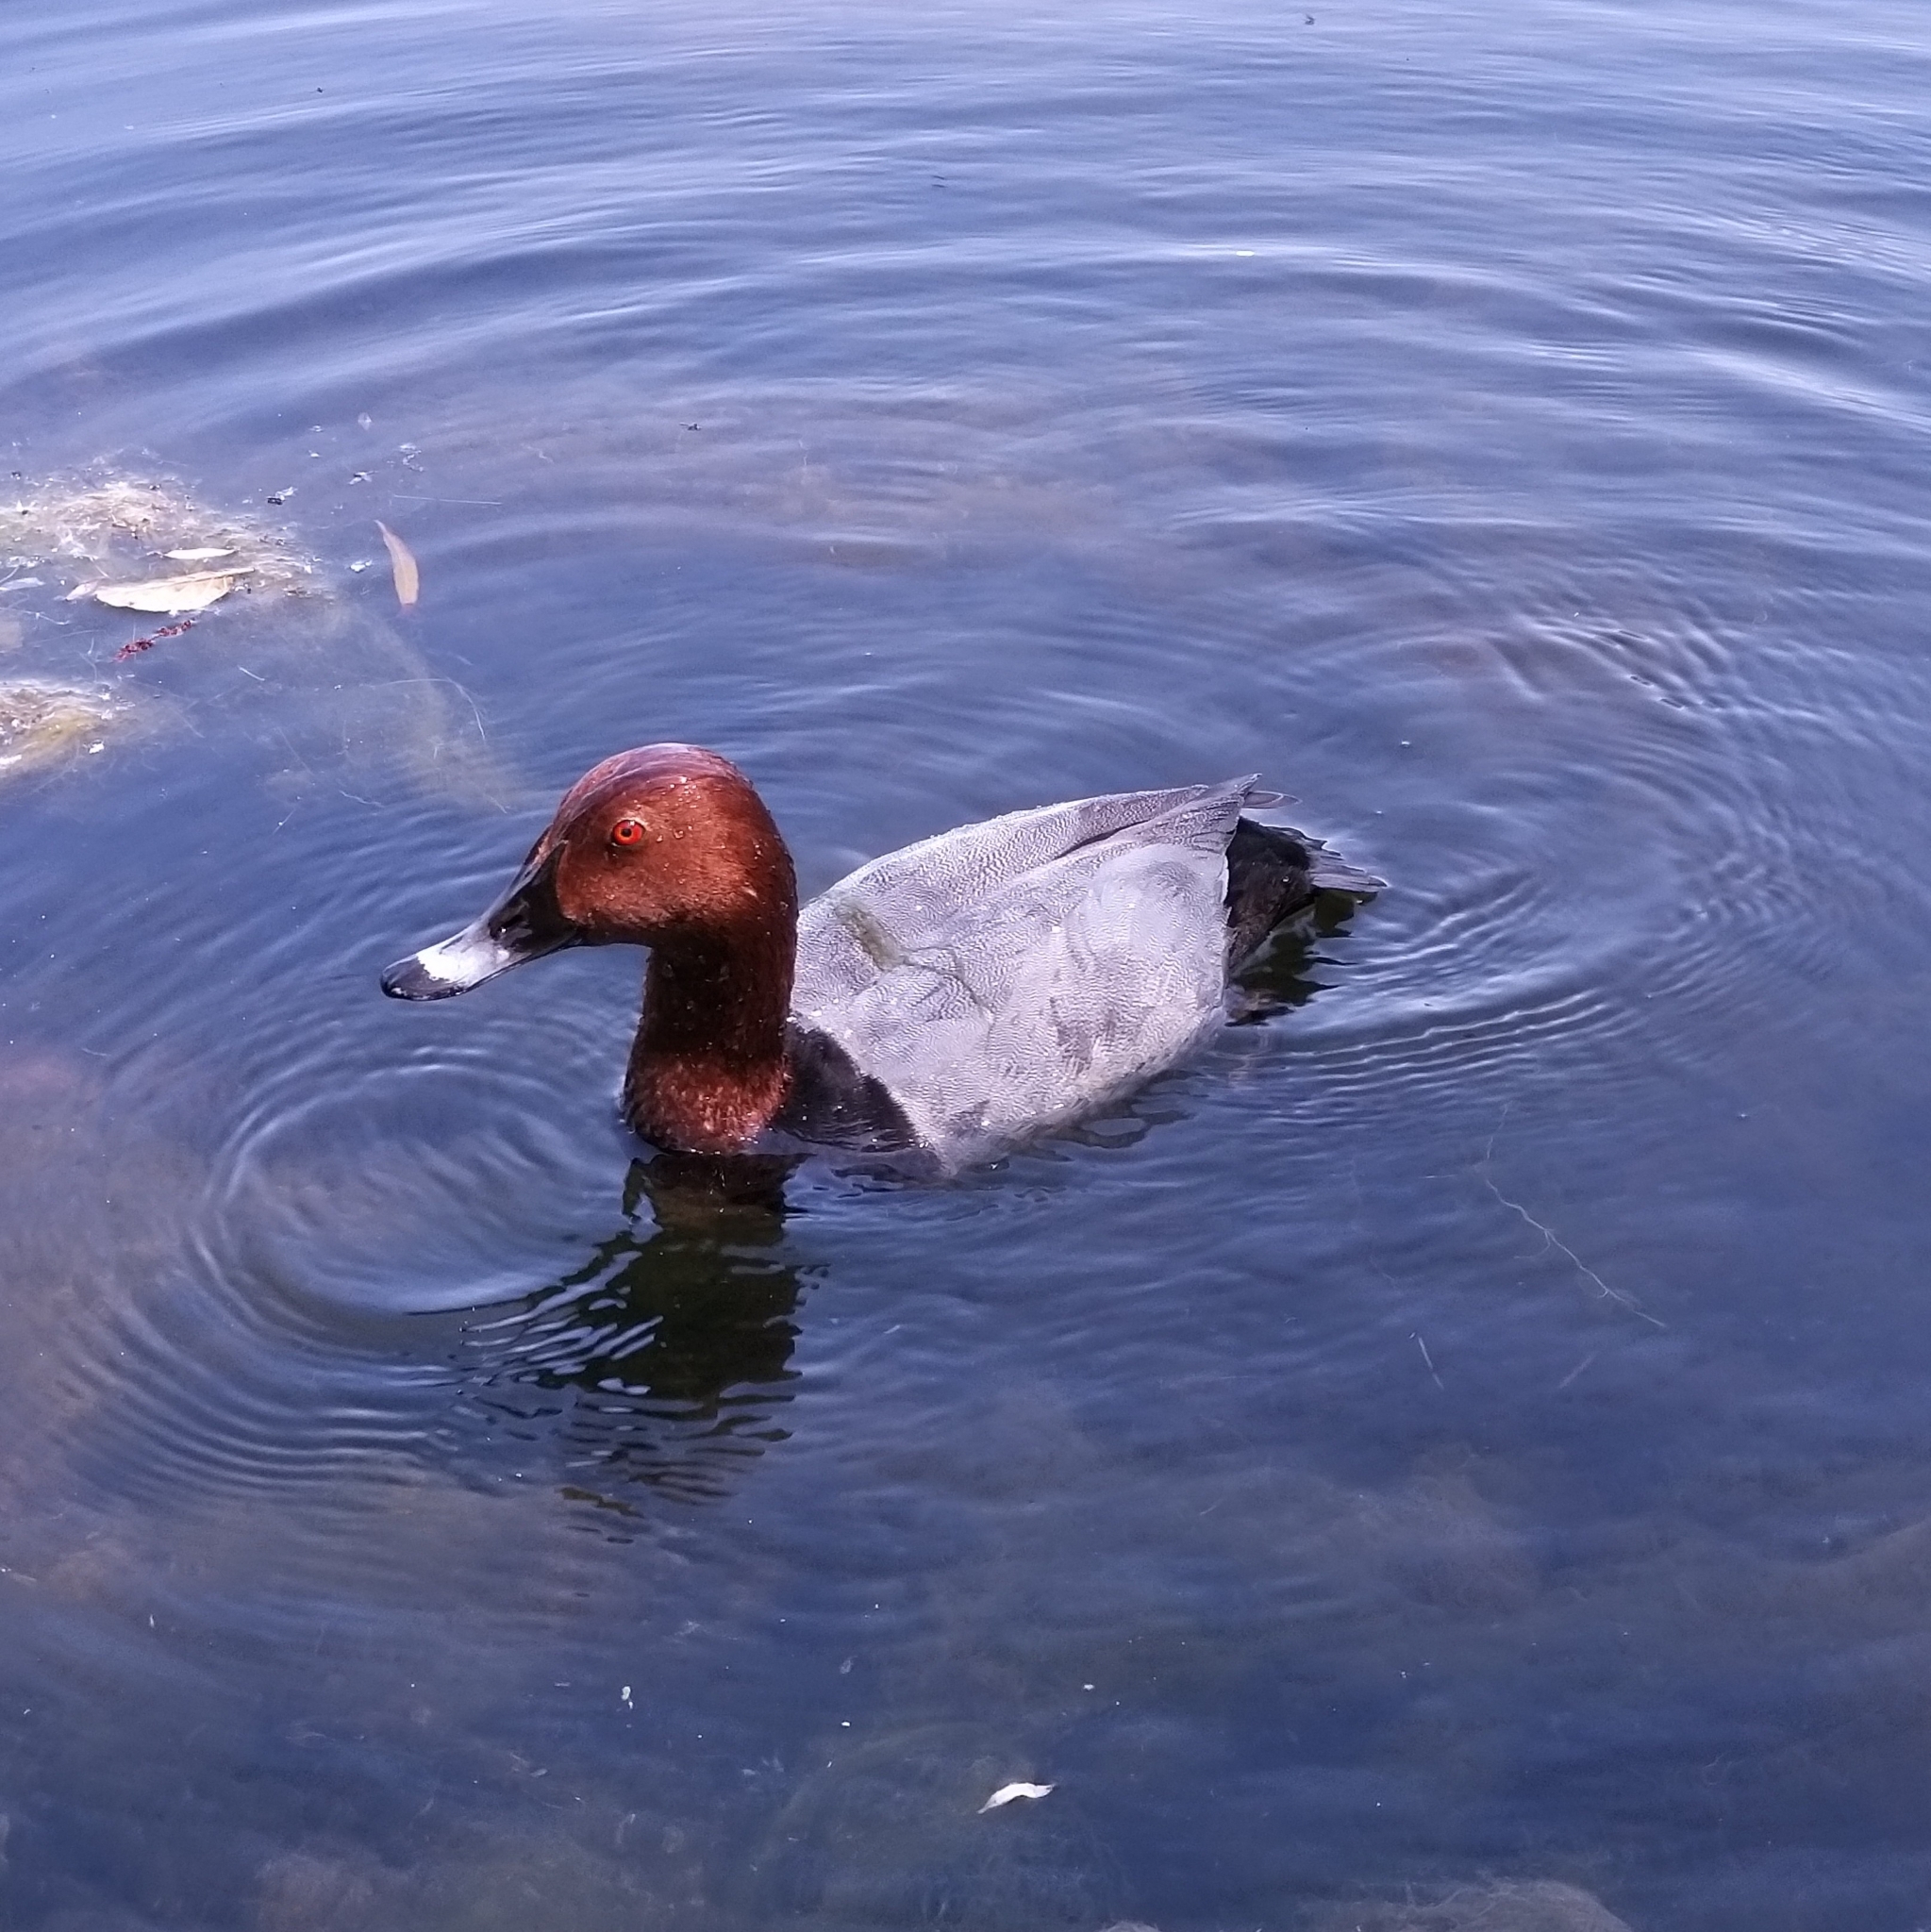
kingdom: Animalia
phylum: Chordata
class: Aves
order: Anseriformes
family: Anatidae
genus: Aythya
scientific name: Aythya ferina
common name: Common pochard
